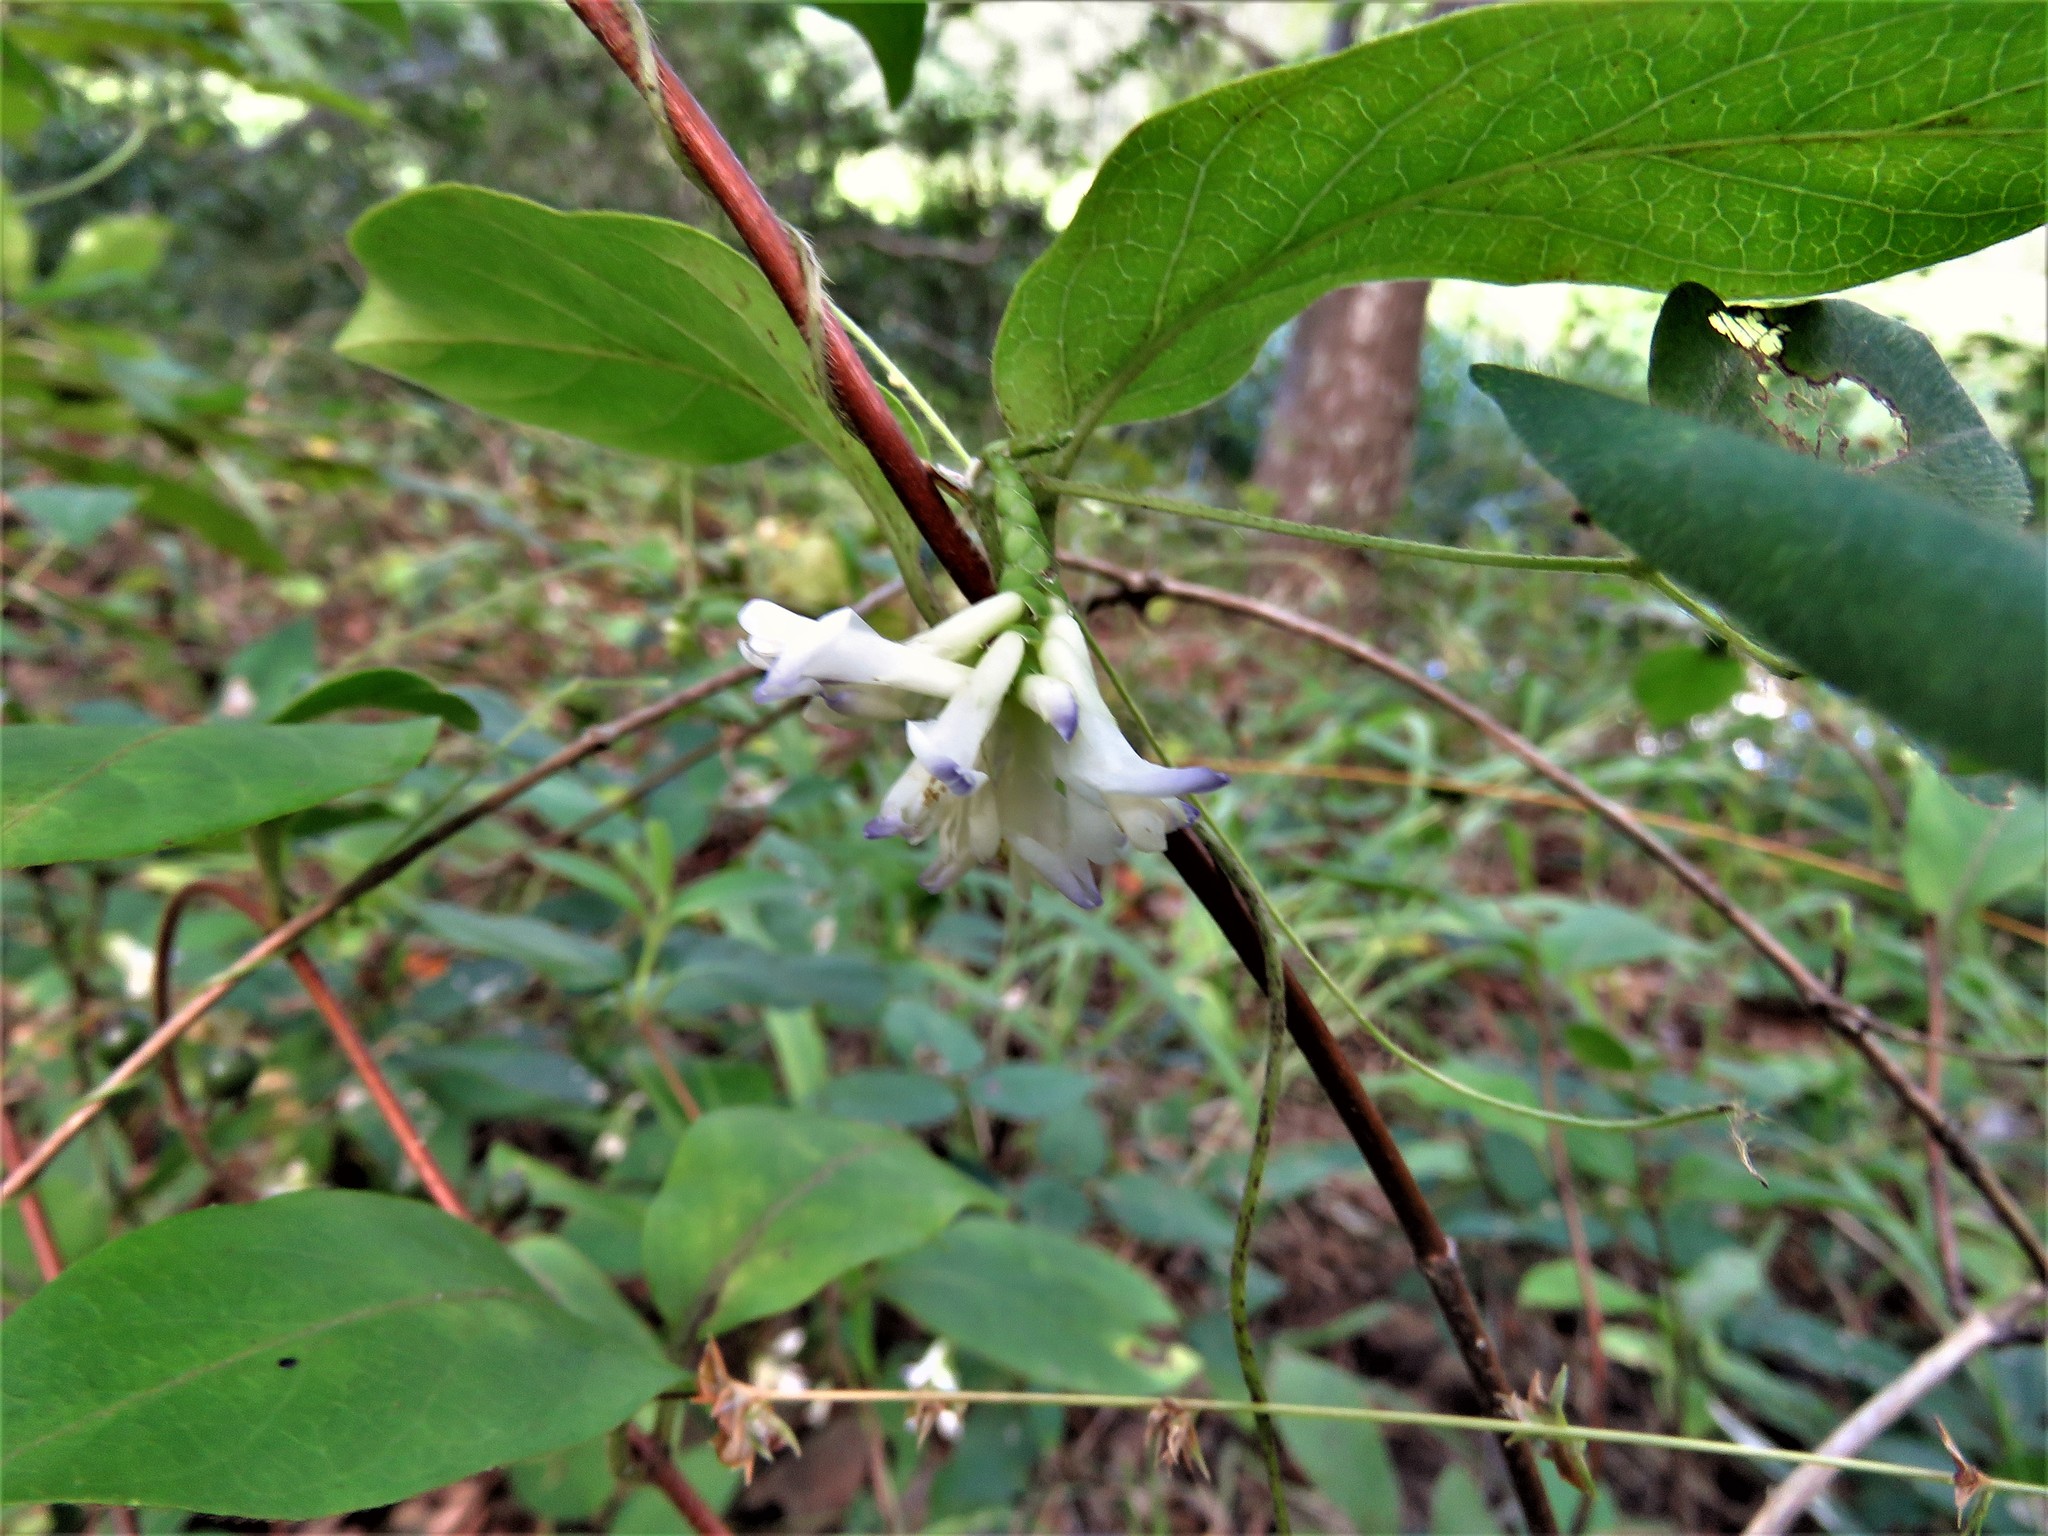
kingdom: Plantae
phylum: Tracheophyta
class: Magnoliopsida
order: Fabales
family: Fabaceae
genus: Amphicarpaea
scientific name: Amphicarpaea bracteata
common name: American hog peanut
